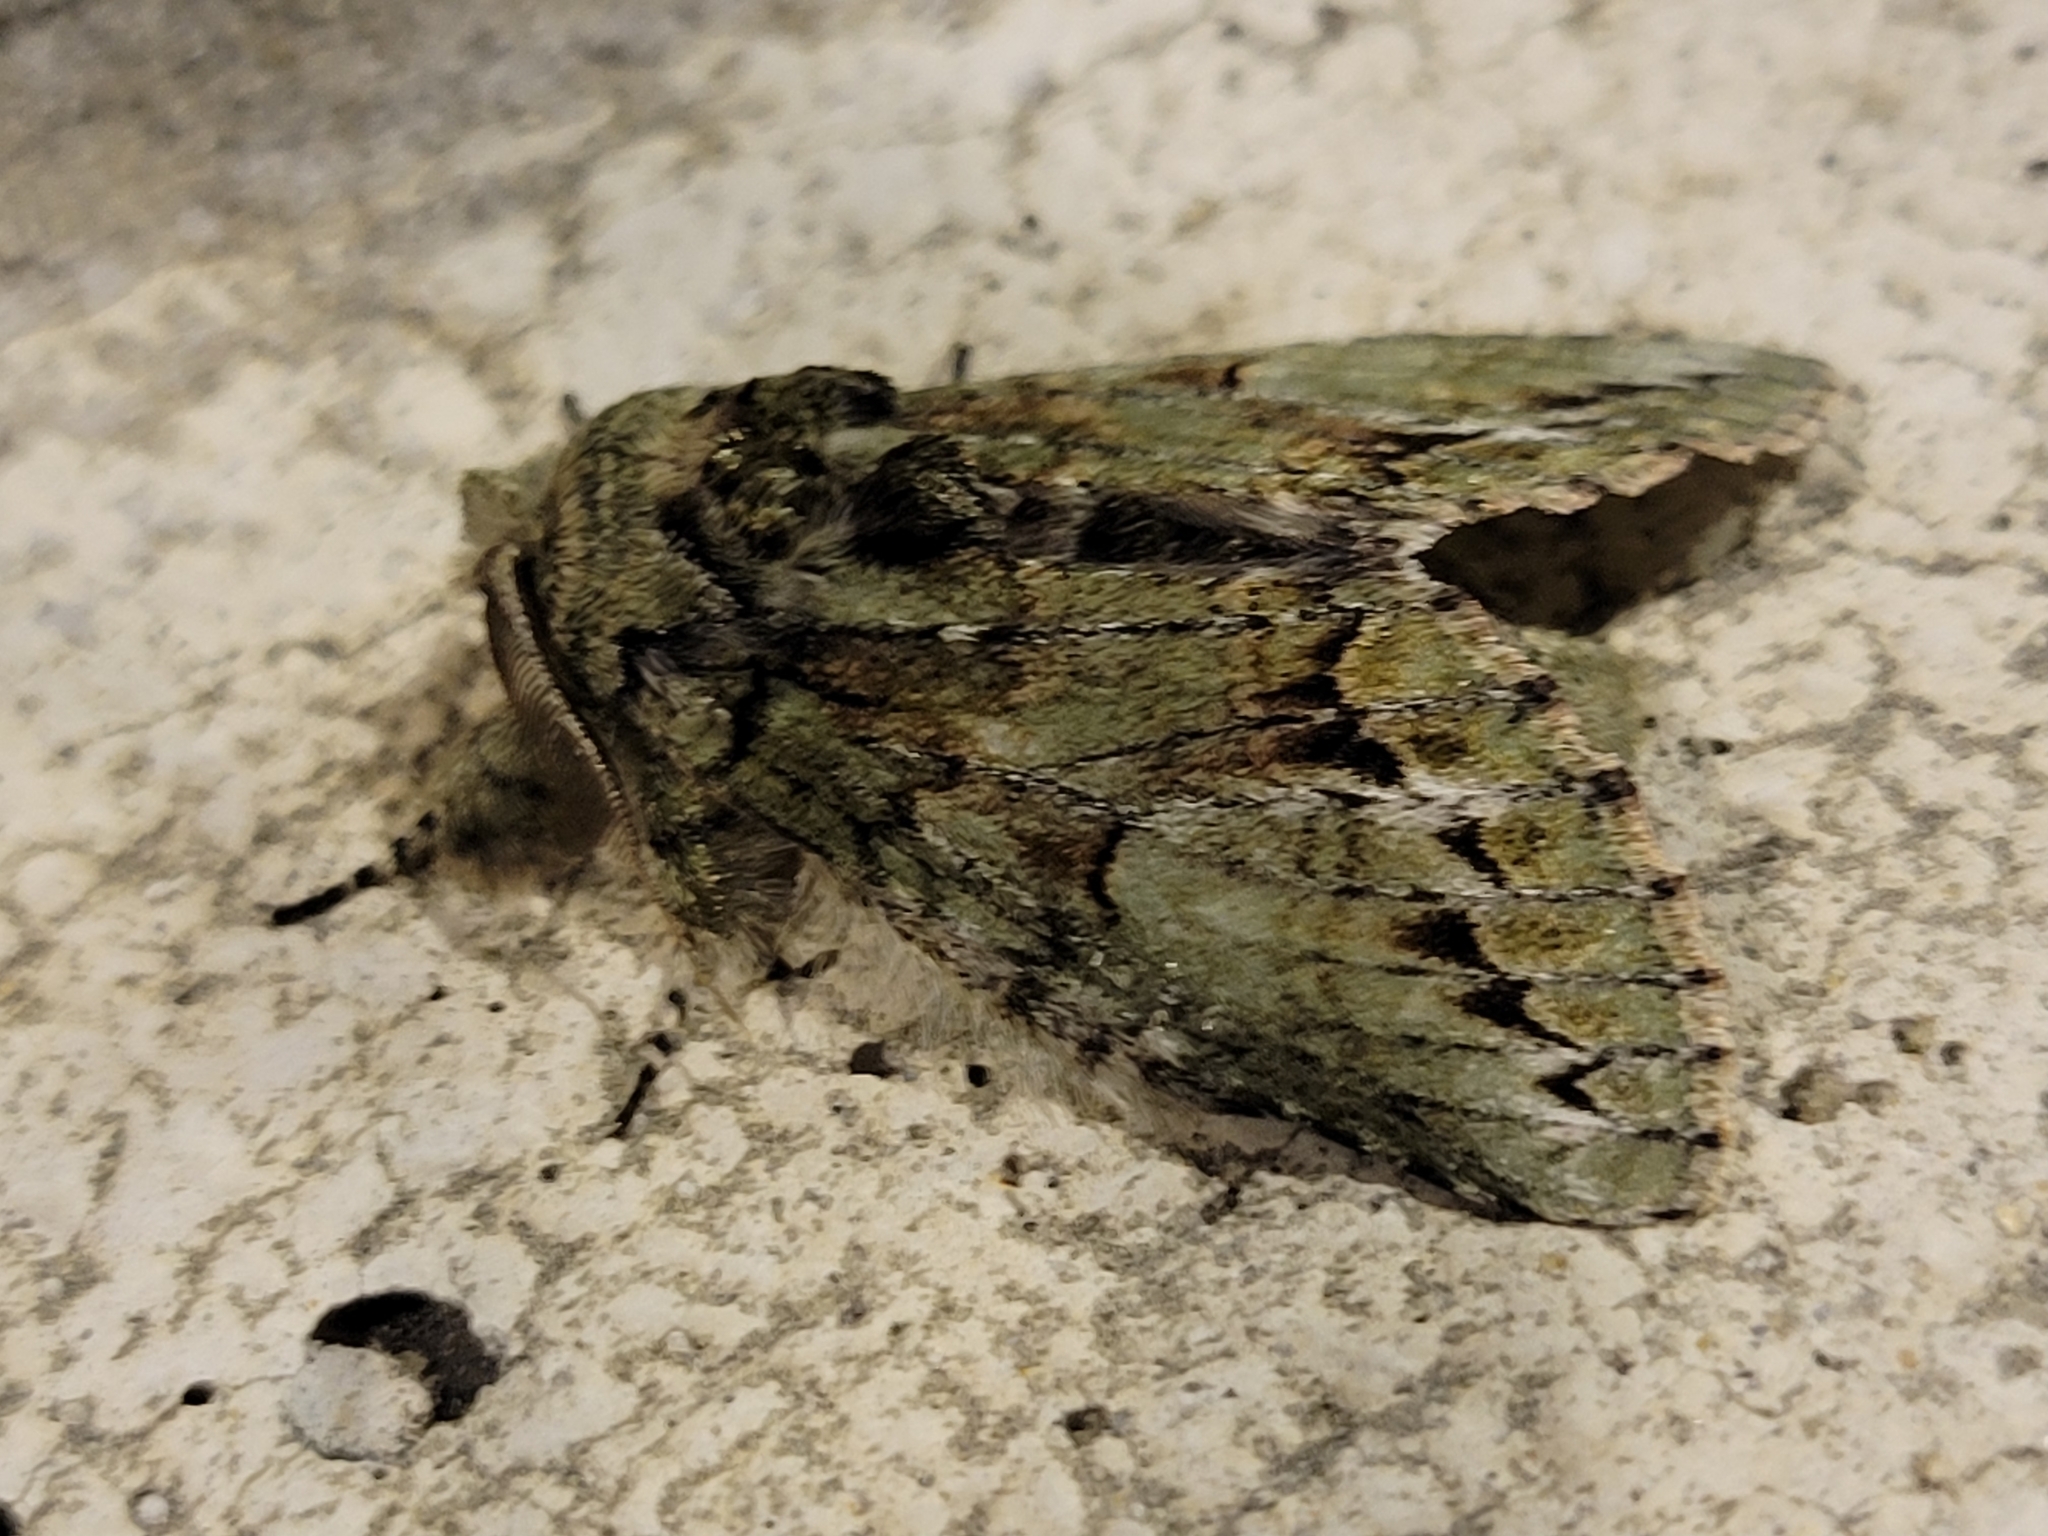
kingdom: Animalia
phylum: Arthropoda
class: Insecta
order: Lepidoptera
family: Notodontidae
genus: Heterocampa
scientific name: Heterocampa
